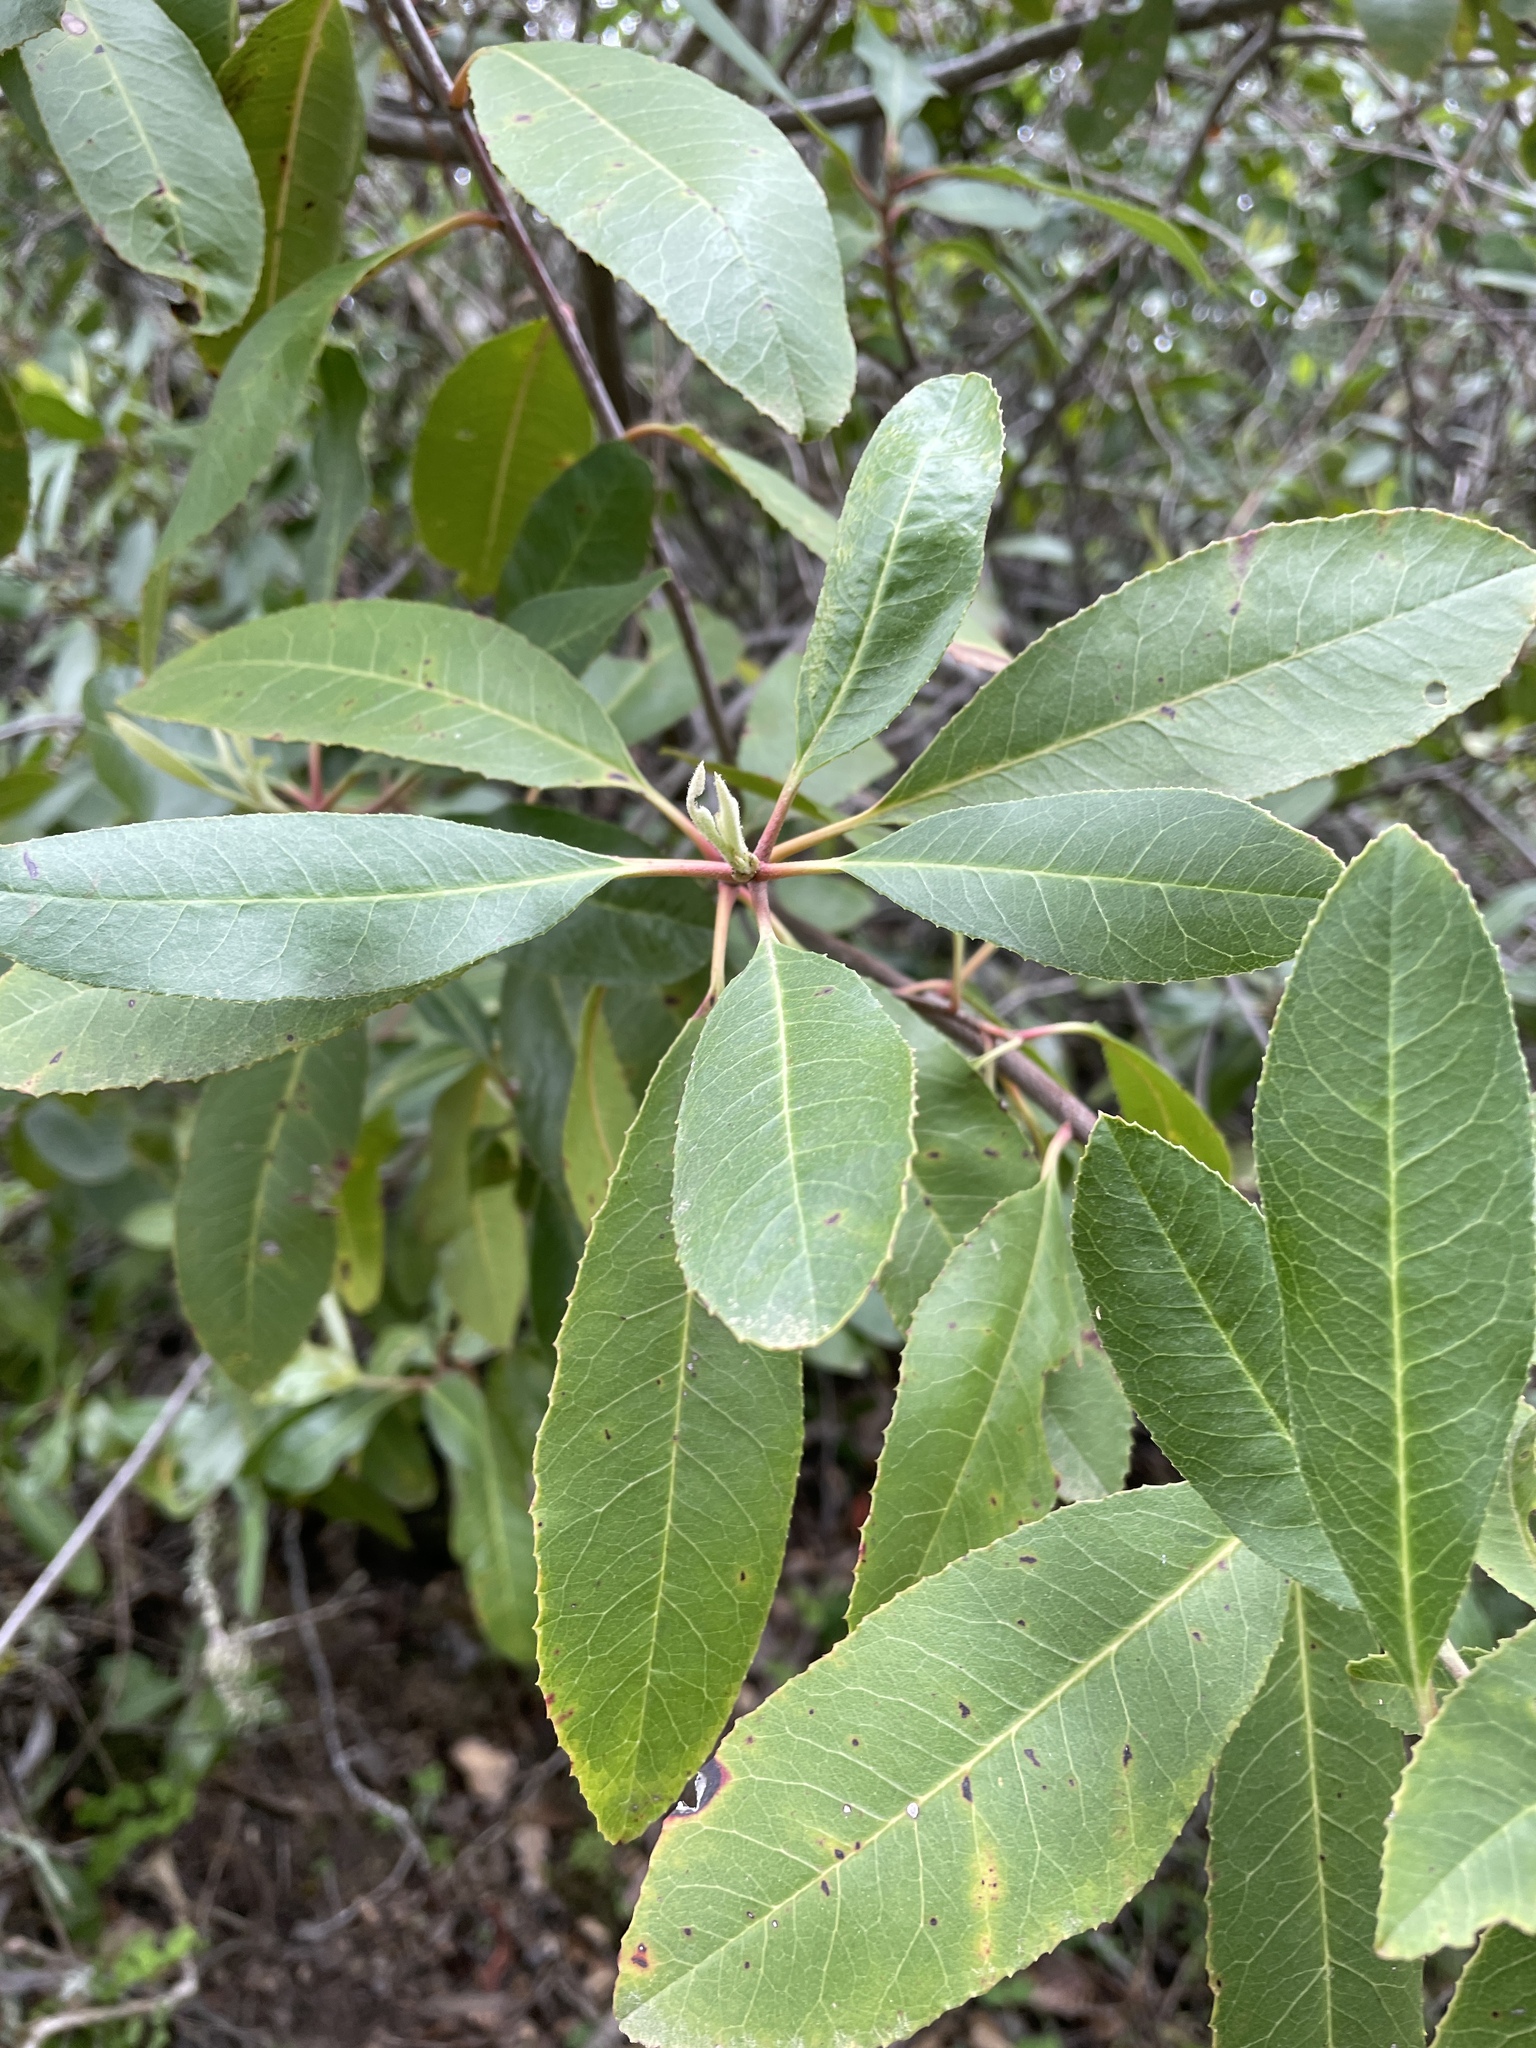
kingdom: Plantae
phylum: Tracheophyta
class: Magnoliopsida
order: Rosales
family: Rosaceae
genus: Heteromeles
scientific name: Heteromeles arbutifolia
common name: California-holly
